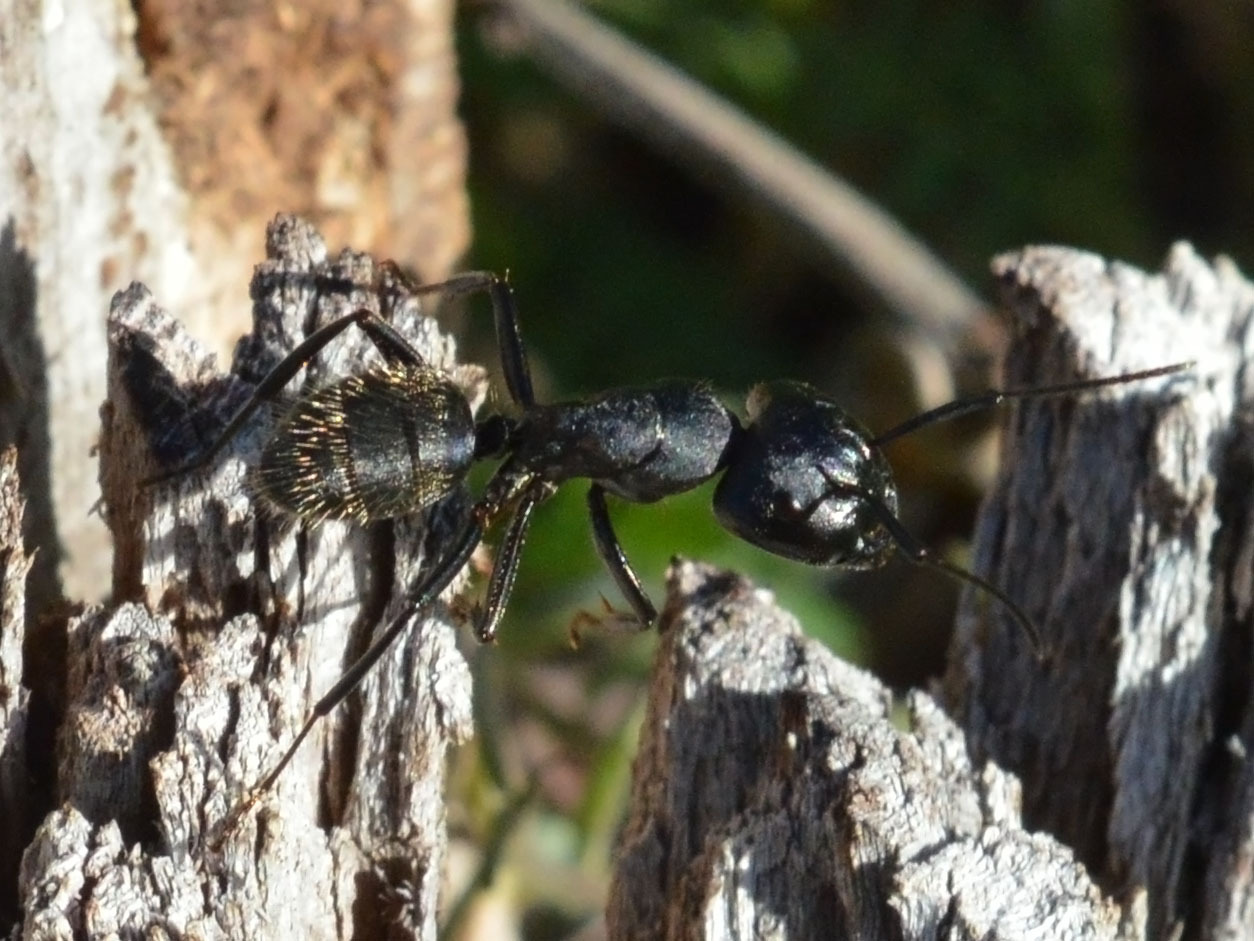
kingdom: Animalia
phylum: Arthropoda
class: Insecta
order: Hymenoptera
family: Formicidae
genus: Camponotus
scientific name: Camponotus vagus
